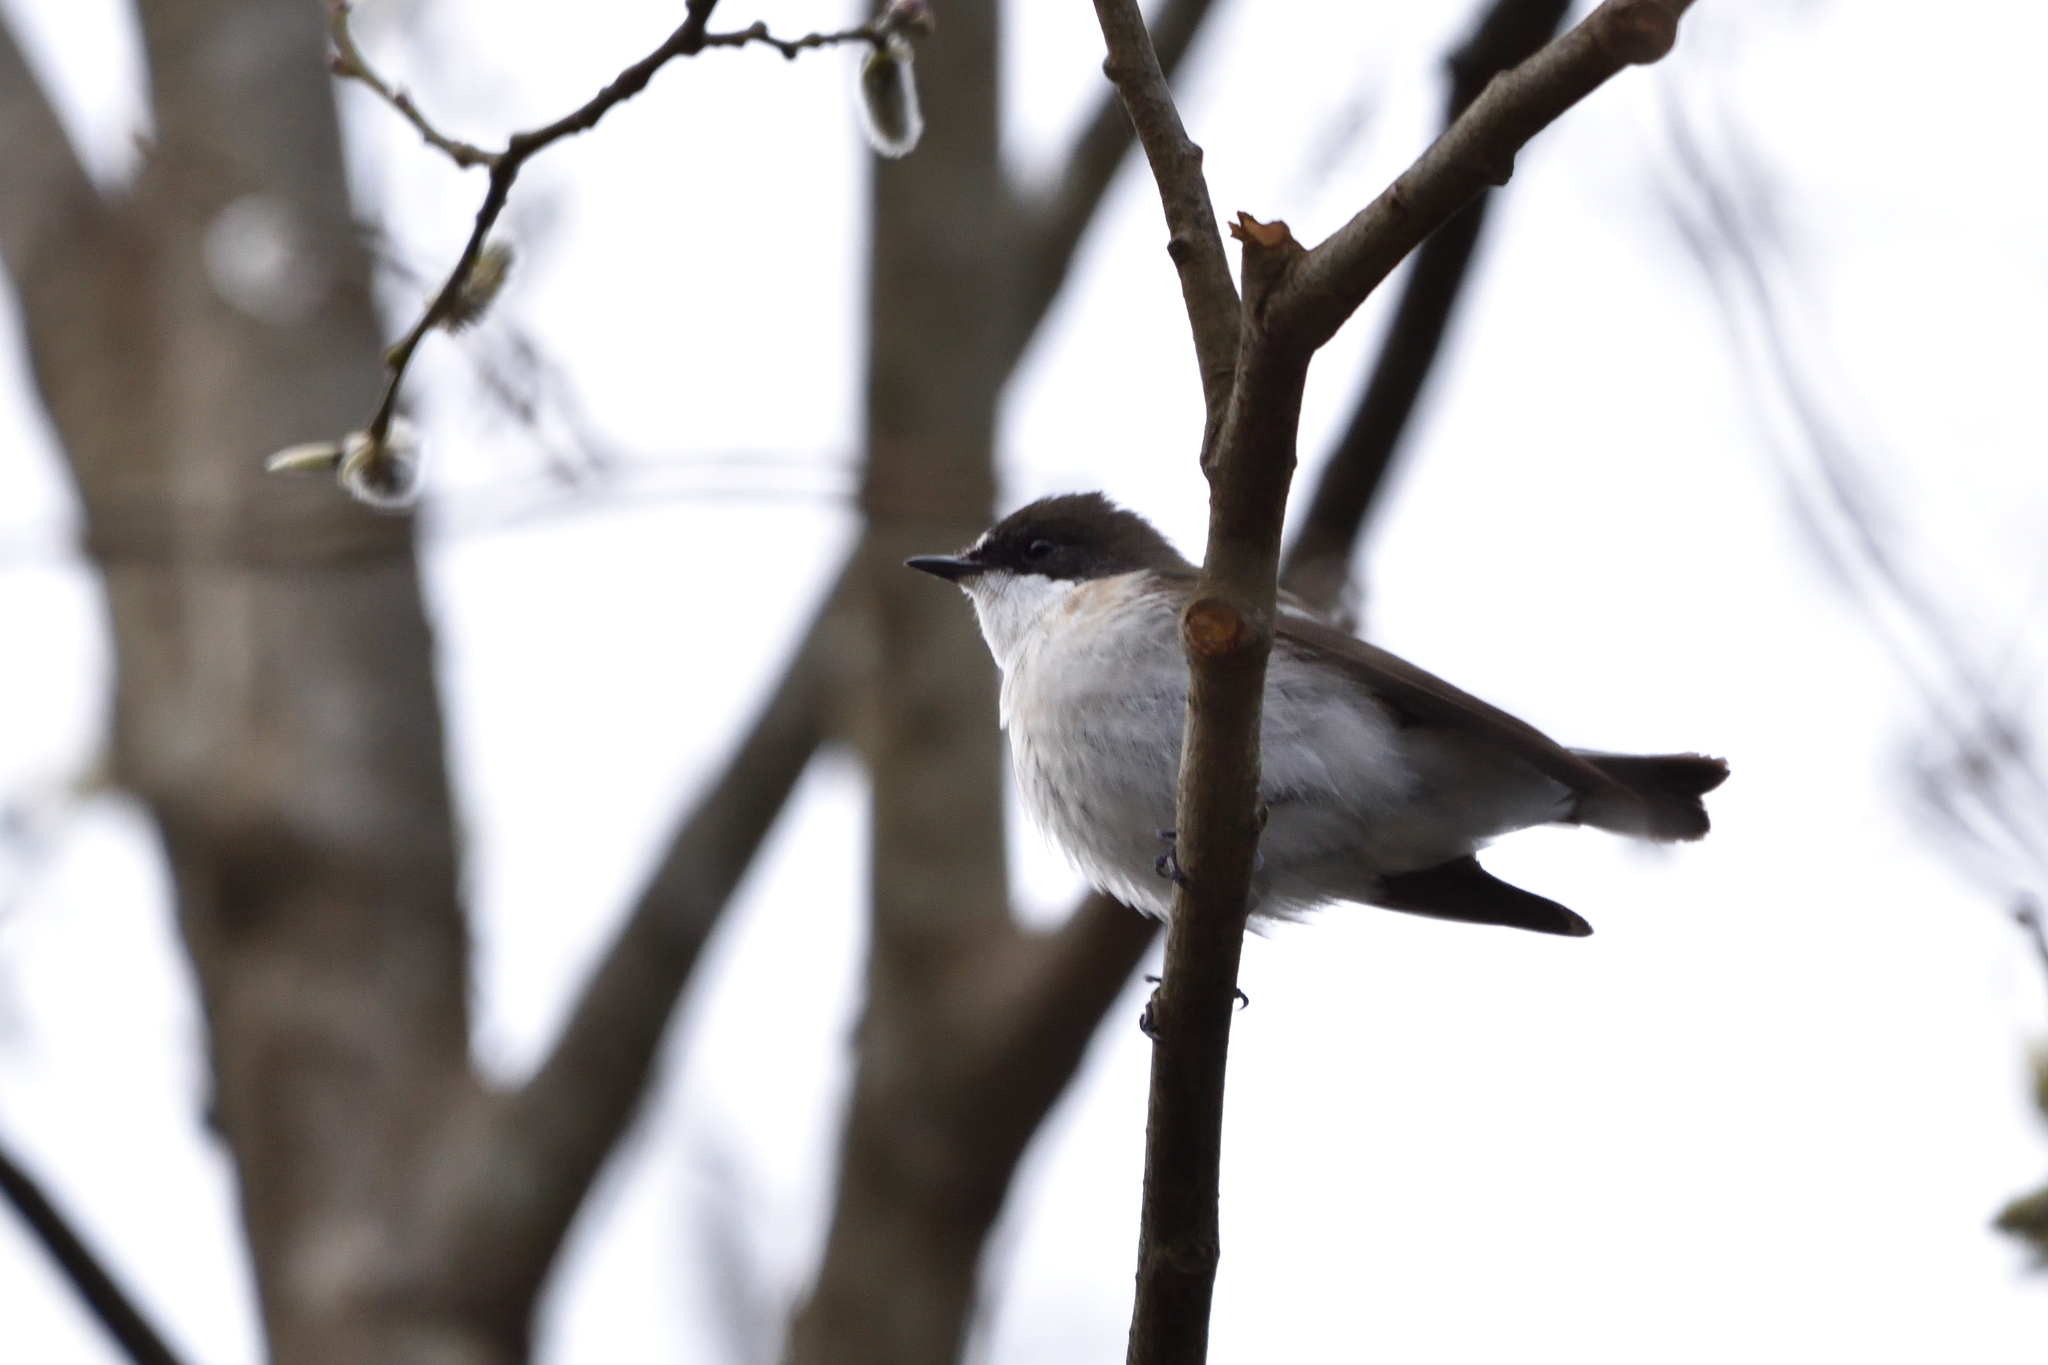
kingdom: Animalia
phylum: Chordata
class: Aves
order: Passeriformes
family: Muscicapidae
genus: Ficedula
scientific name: Ficedula hypoleuca
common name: European pied flycatcher
